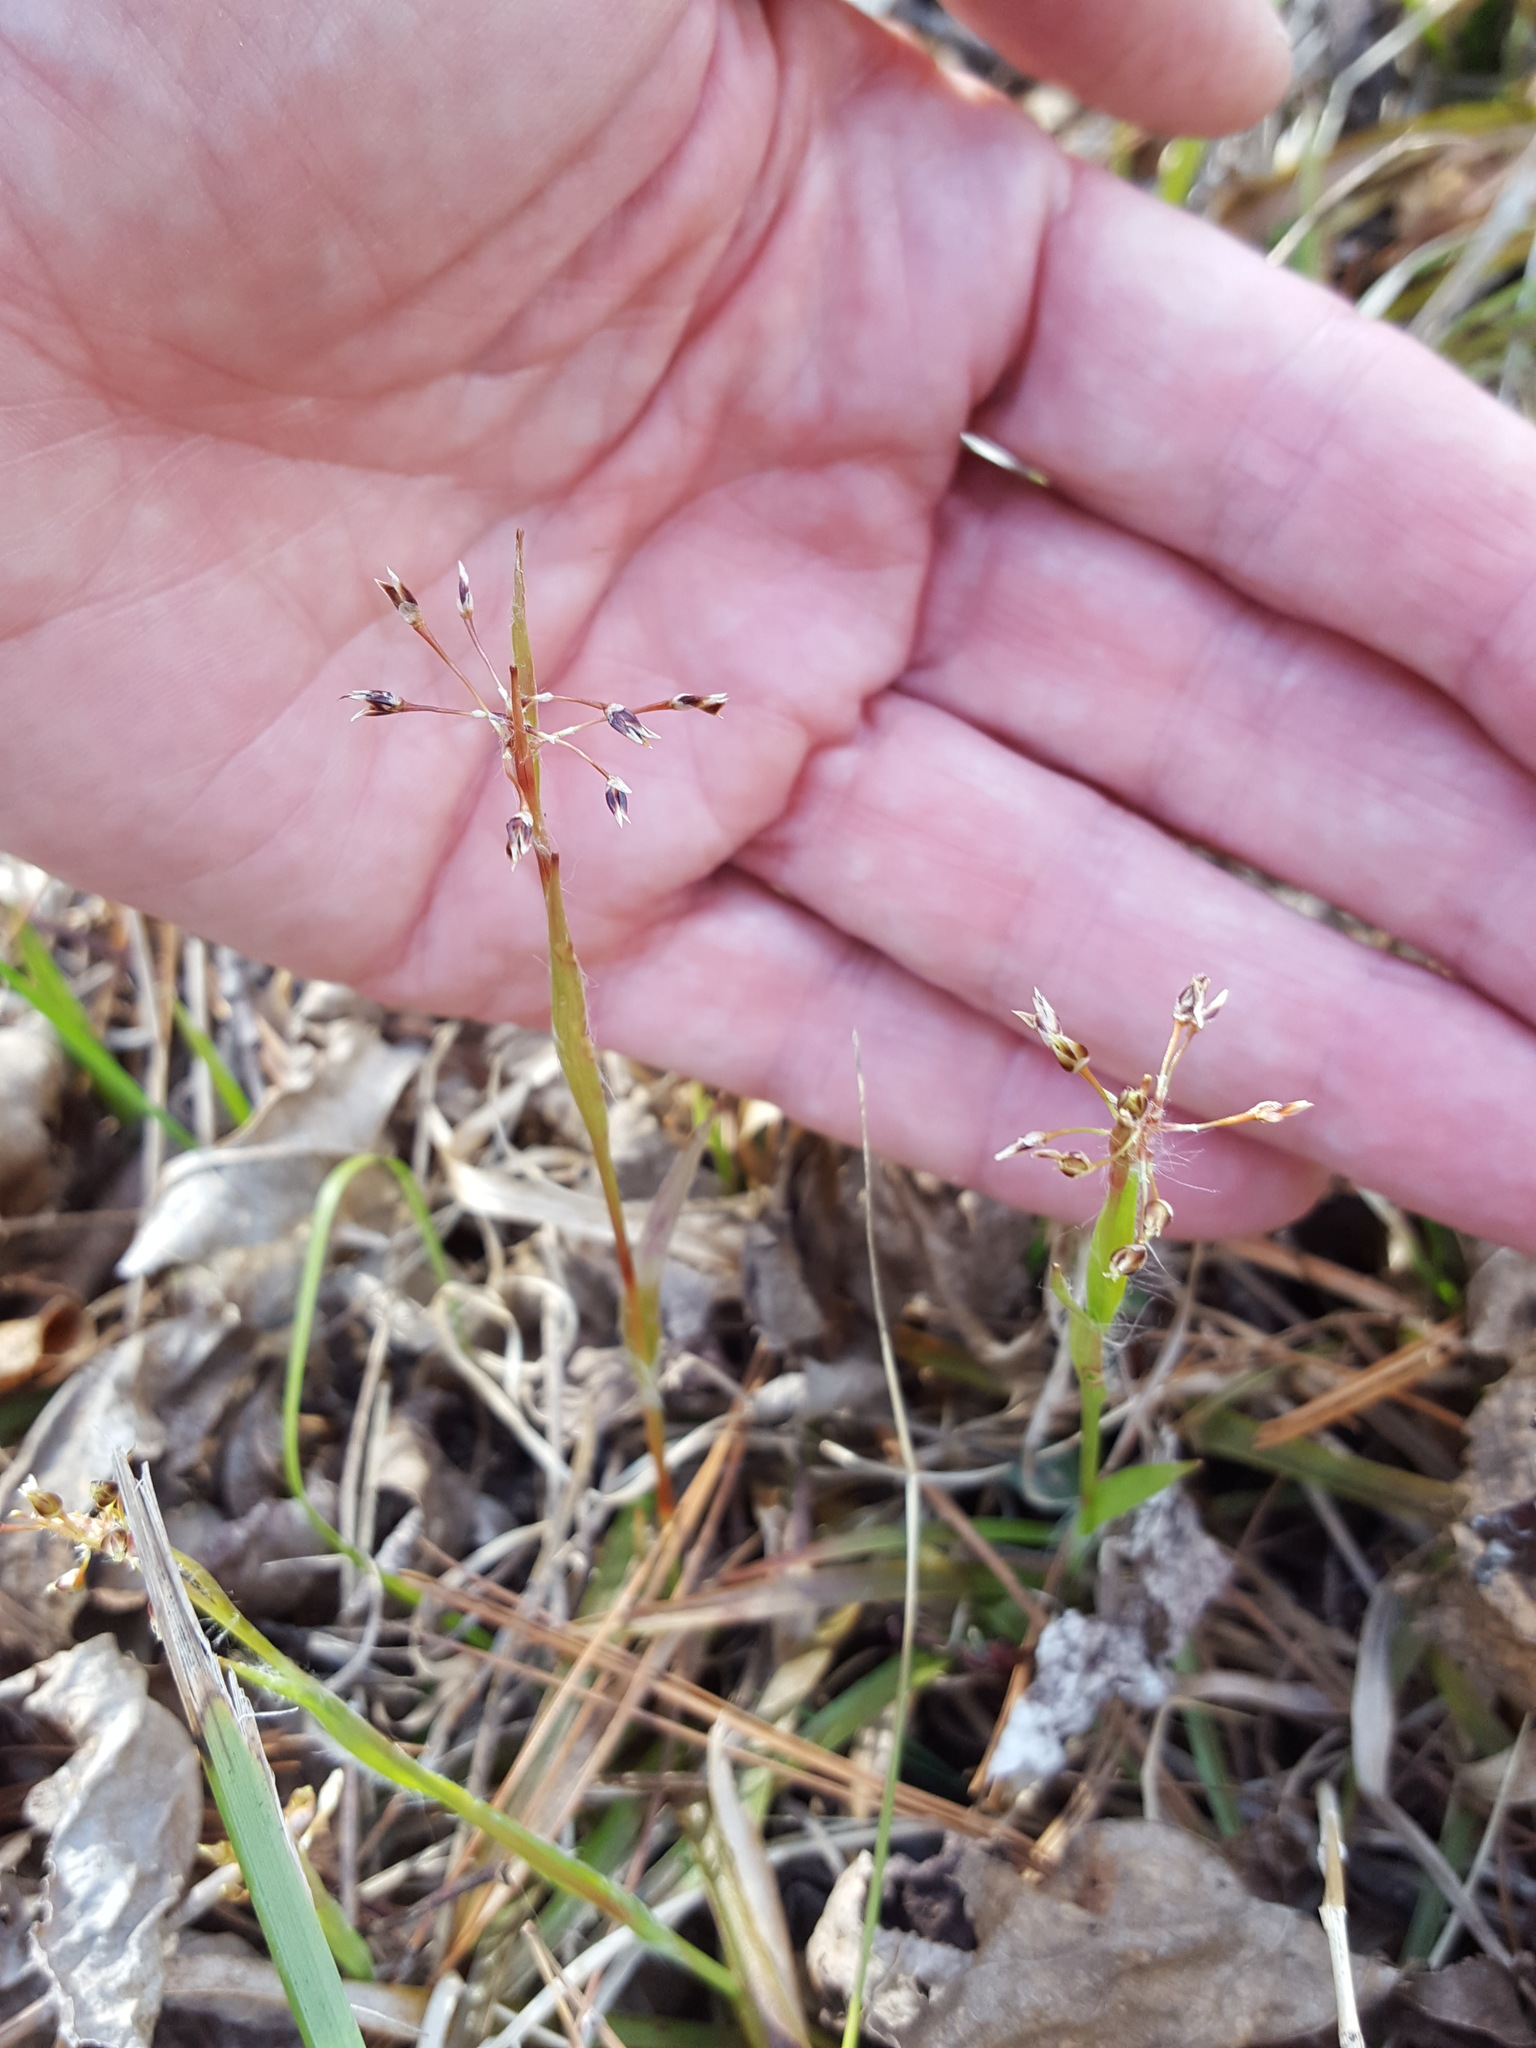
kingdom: Plantae
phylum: Tracheophyta
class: Liliopsida
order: Poales
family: Juncaceae
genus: Luzula
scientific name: Luzula acuminata
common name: Hairy woodrush
